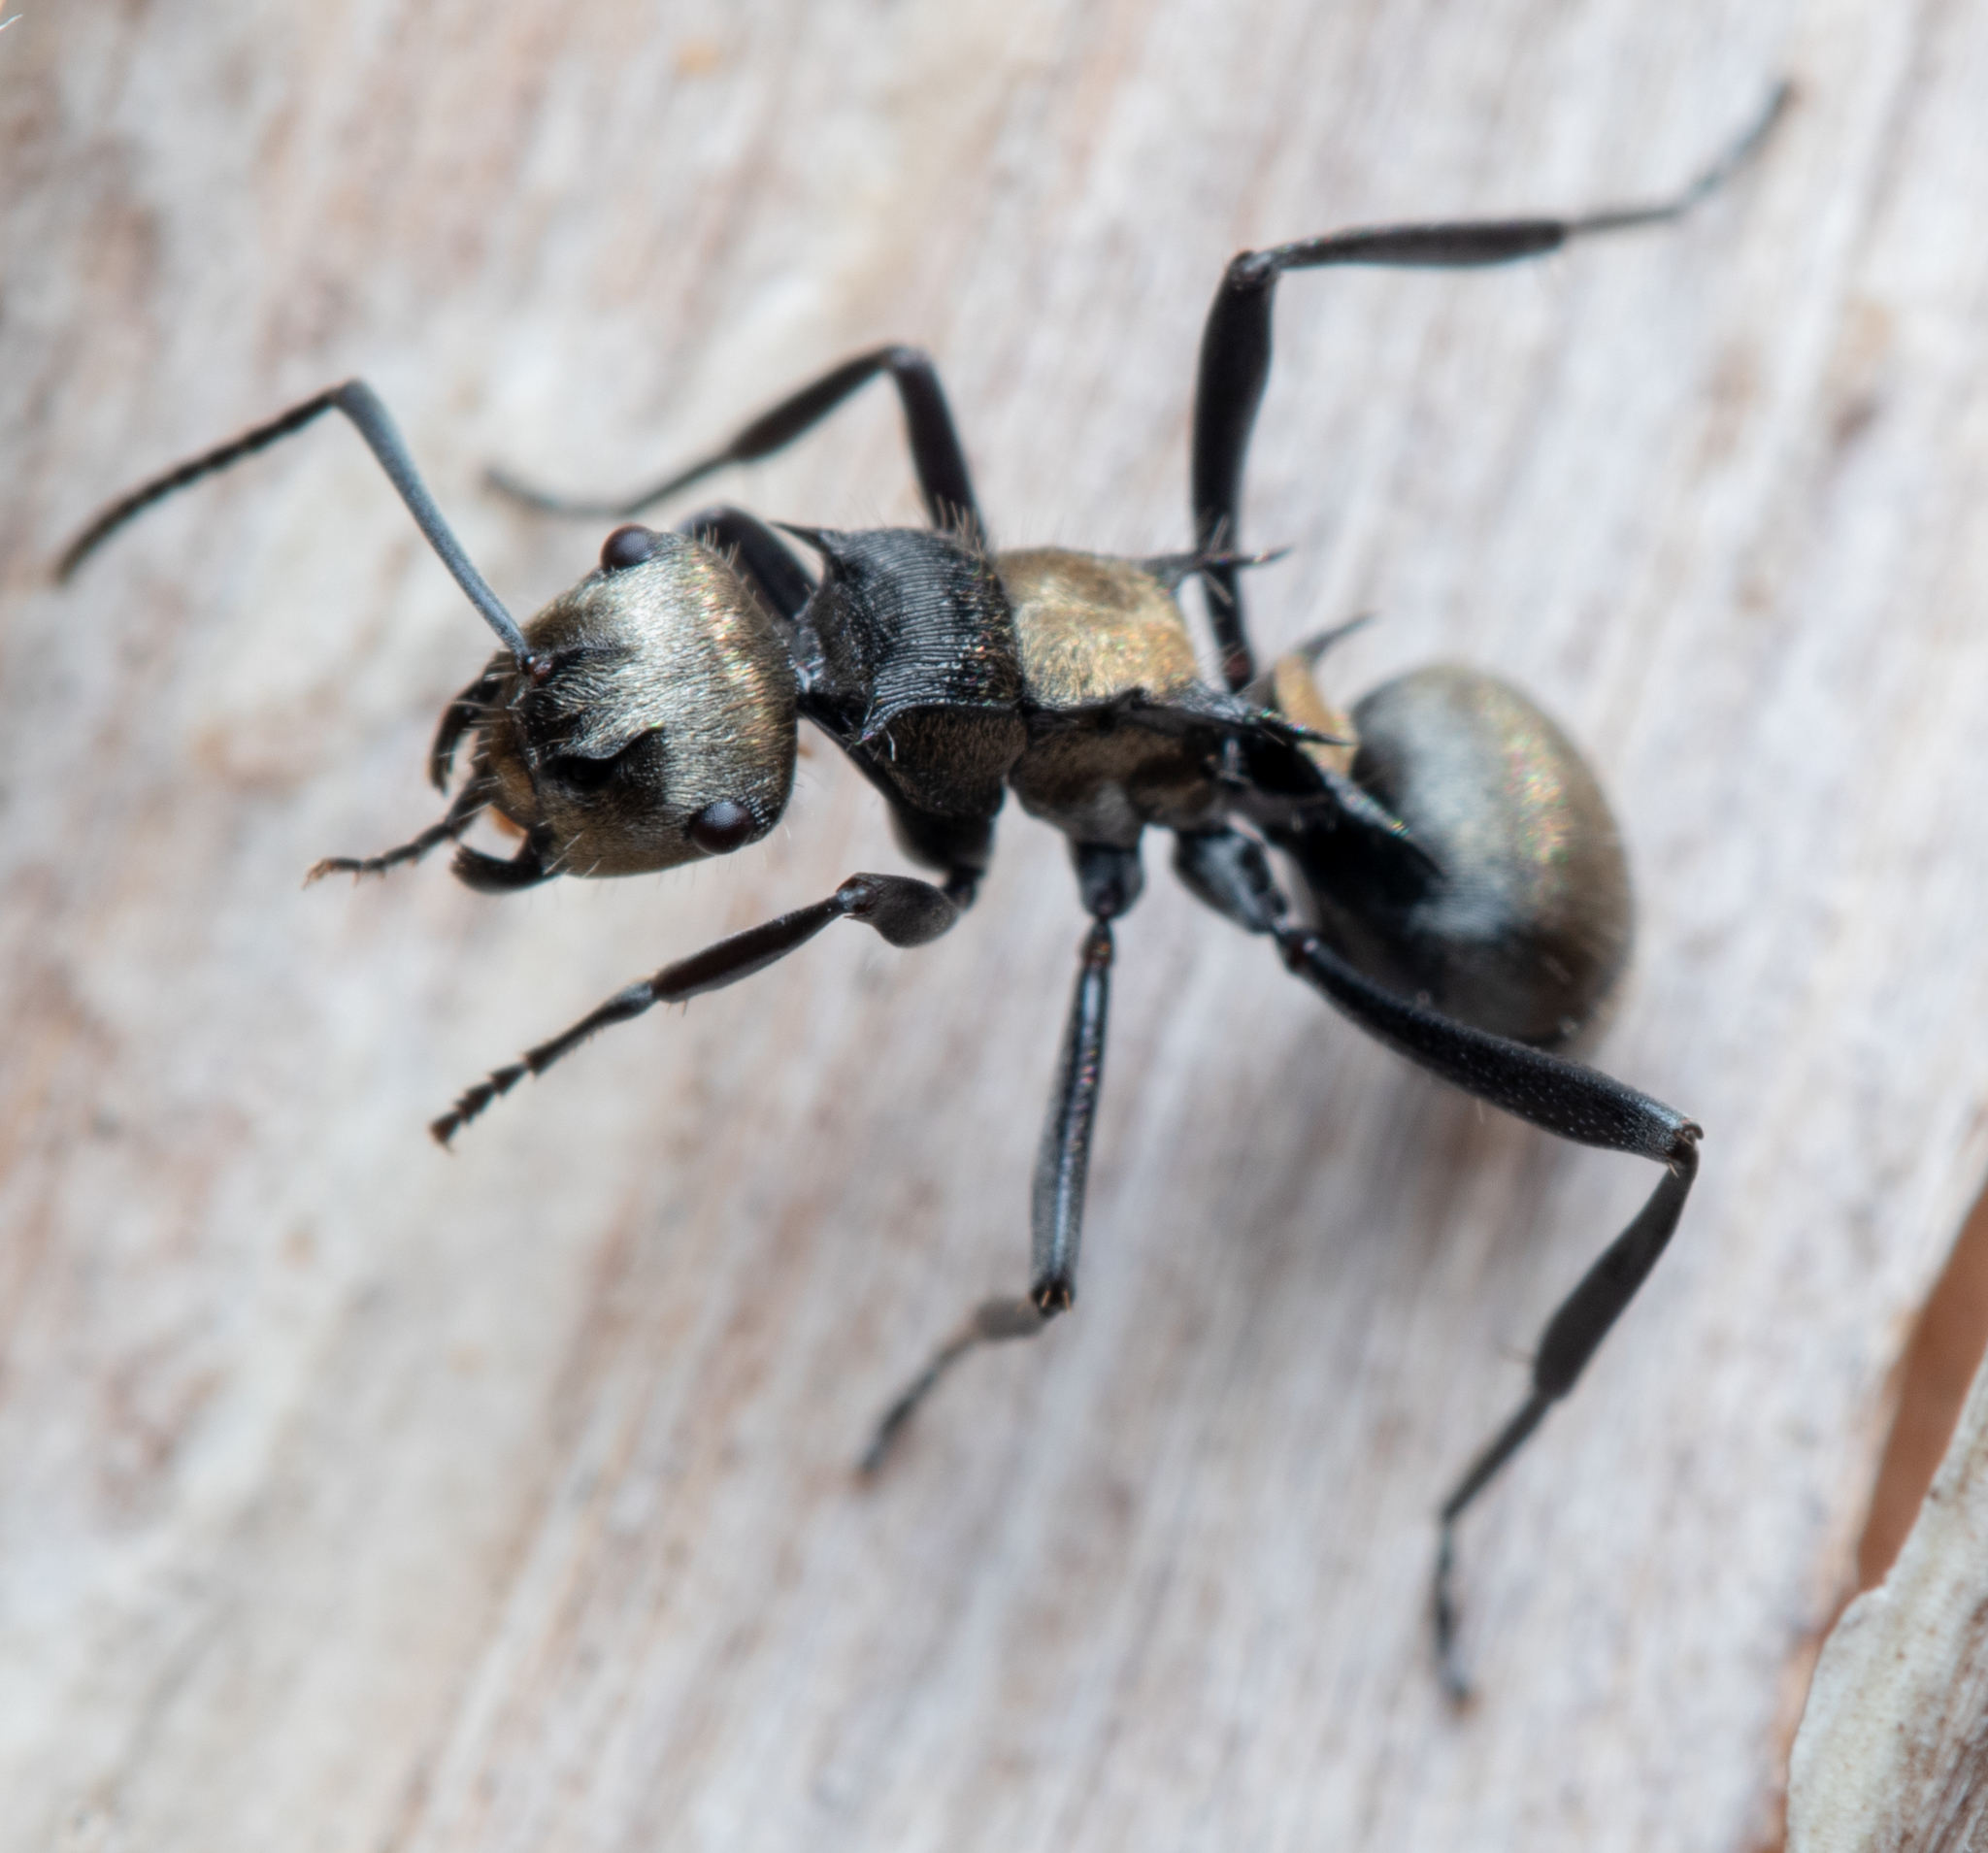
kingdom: Animalia
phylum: Arthropoda
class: Insecta
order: Hymenoptera
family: Formicidae
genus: Polyrhachis
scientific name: Polyrhachis daemeli
